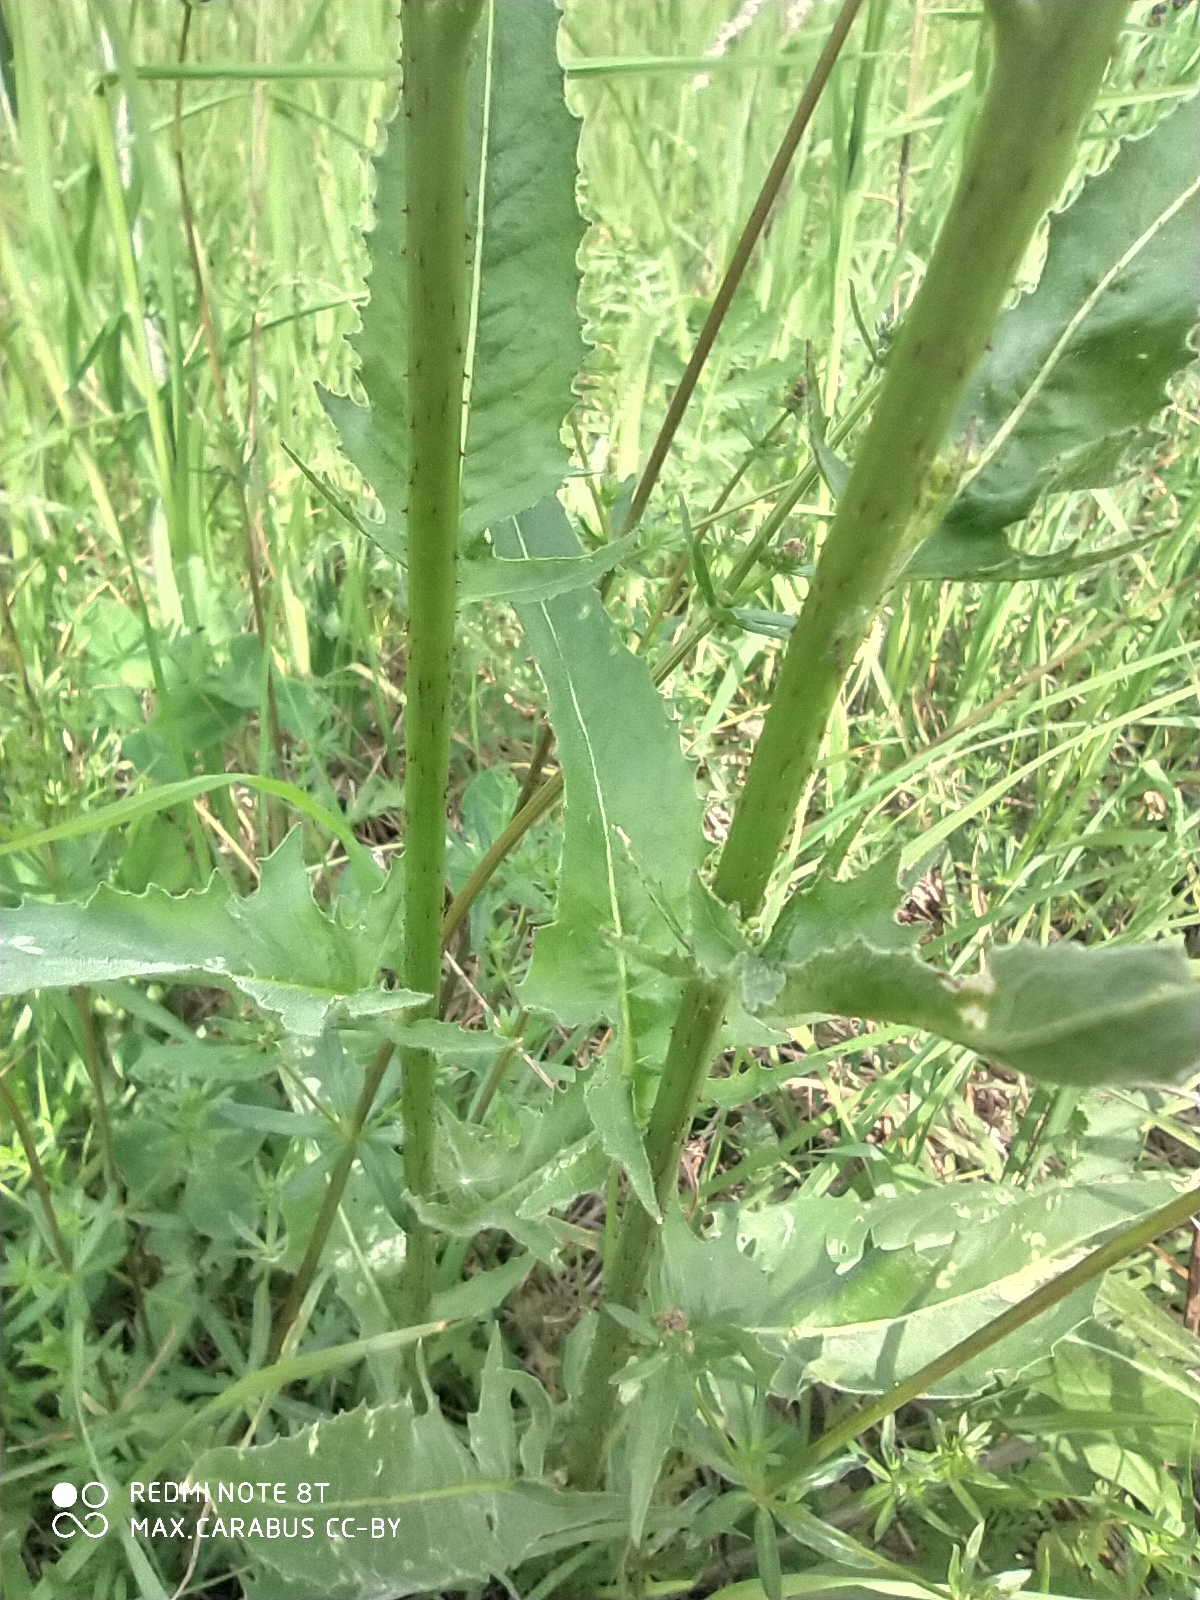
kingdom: Plantae
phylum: Tracheophyta
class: Magnoliopsida
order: Brassicales
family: Brassicaceae
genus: Bunias
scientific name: Bunias orientalis
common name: Warty-cabbage
